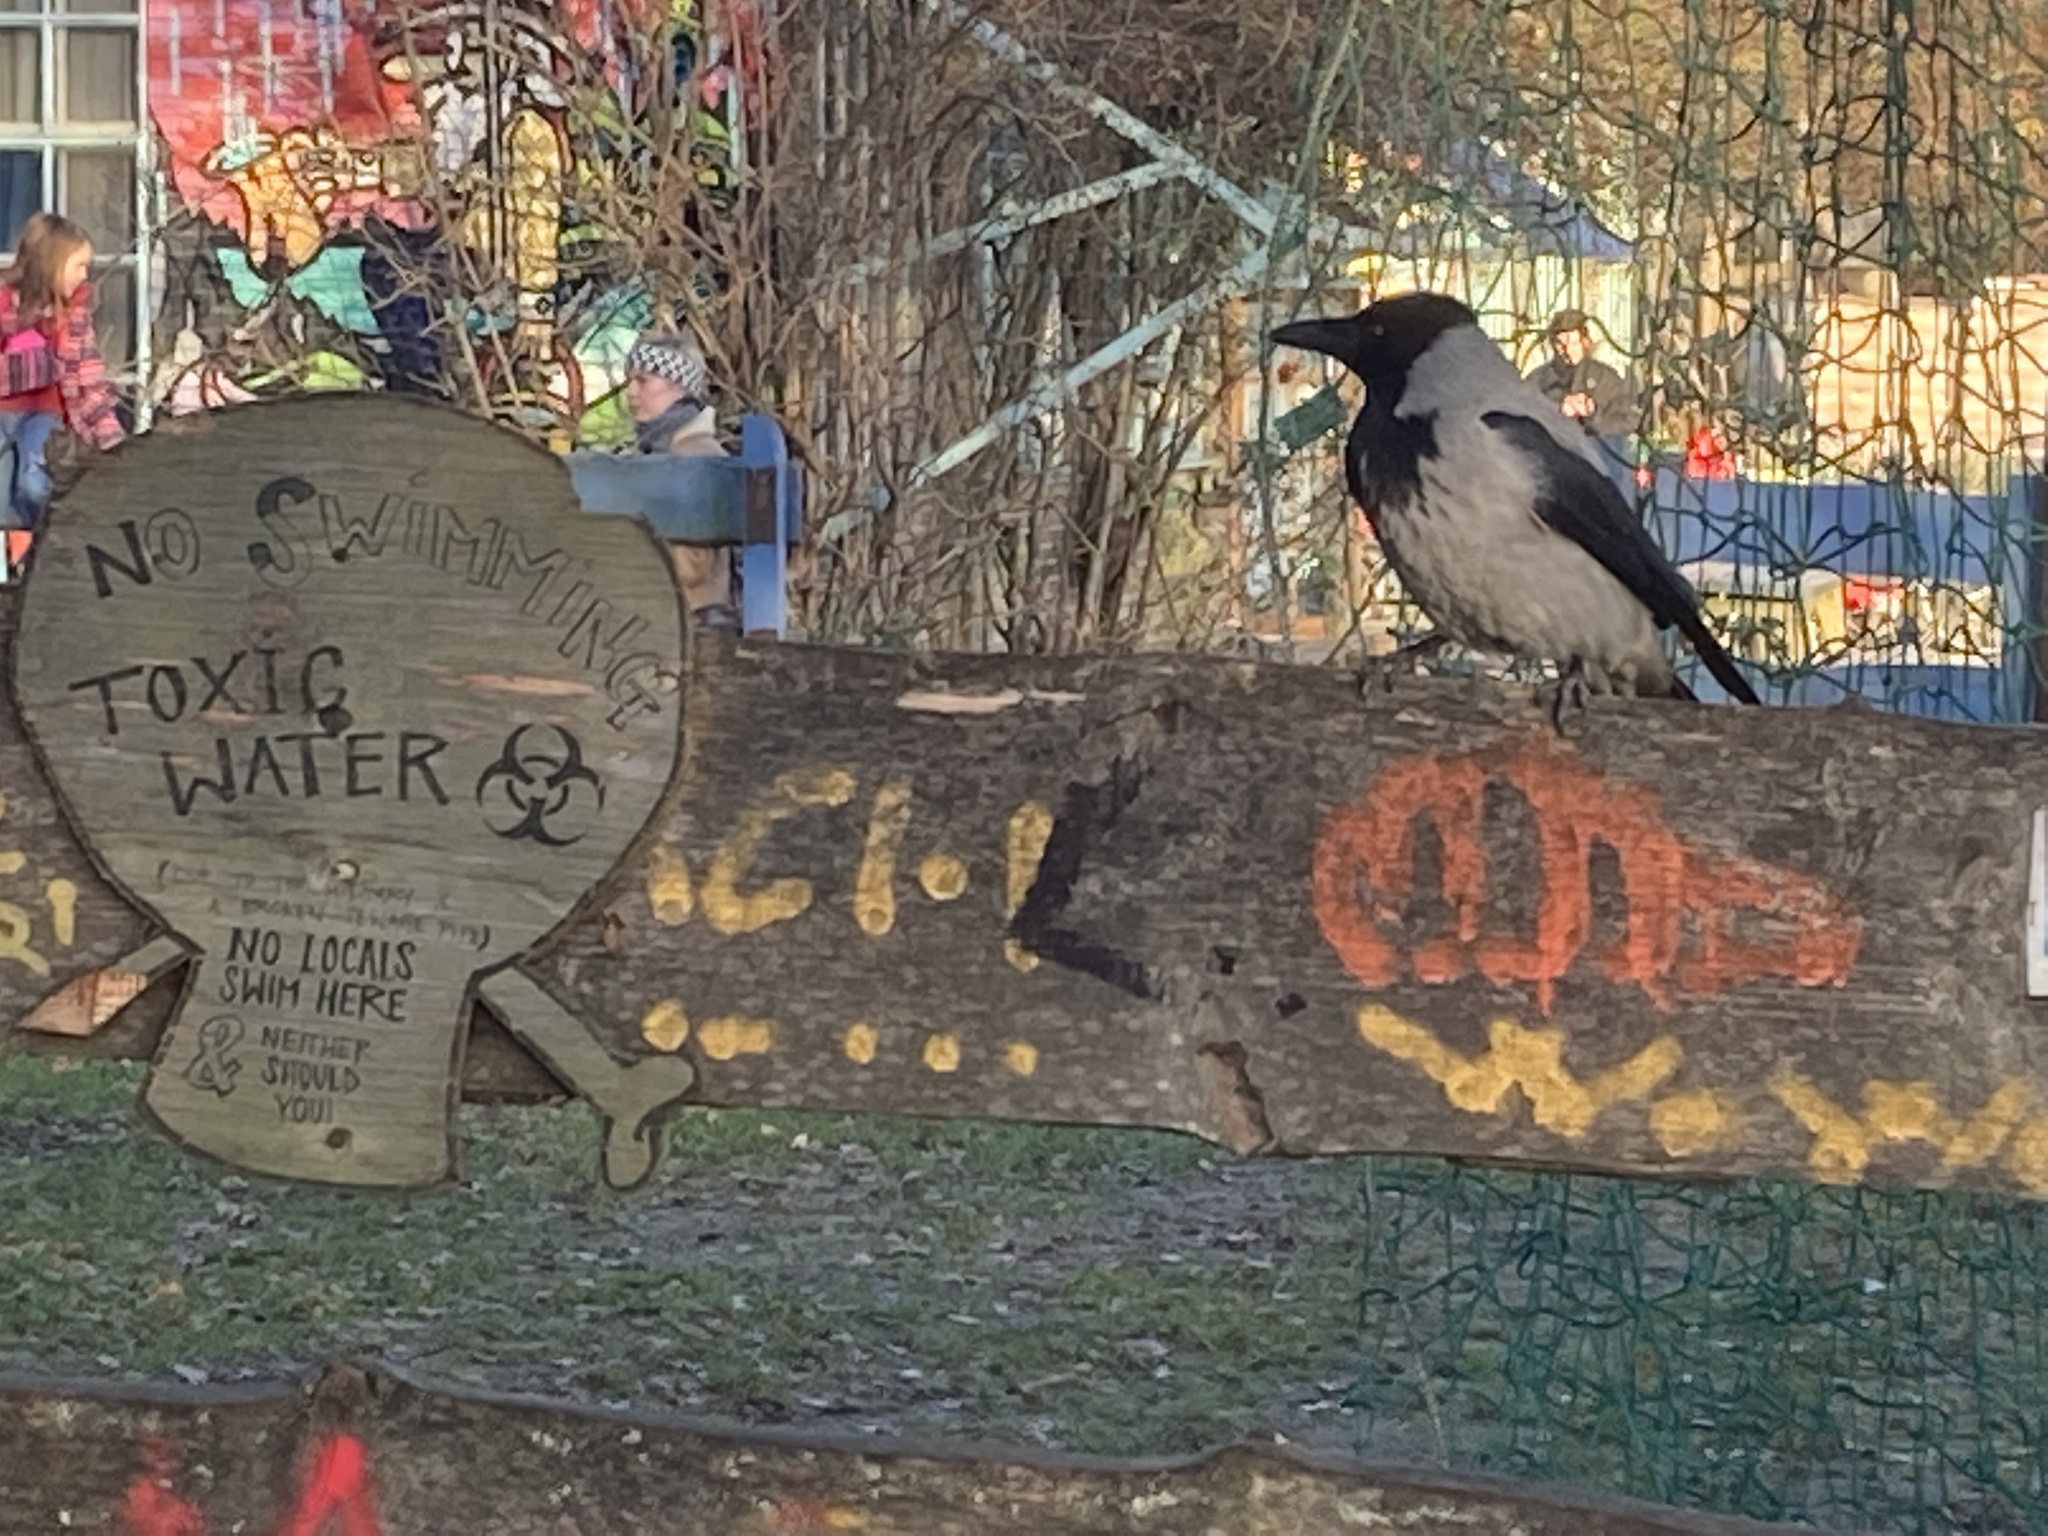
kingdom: Animalia
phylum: Chordata
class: Aves
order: Passeriformes
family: Corvidae
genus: Corvus
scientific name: Corvus cornix
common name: Hooded crow
